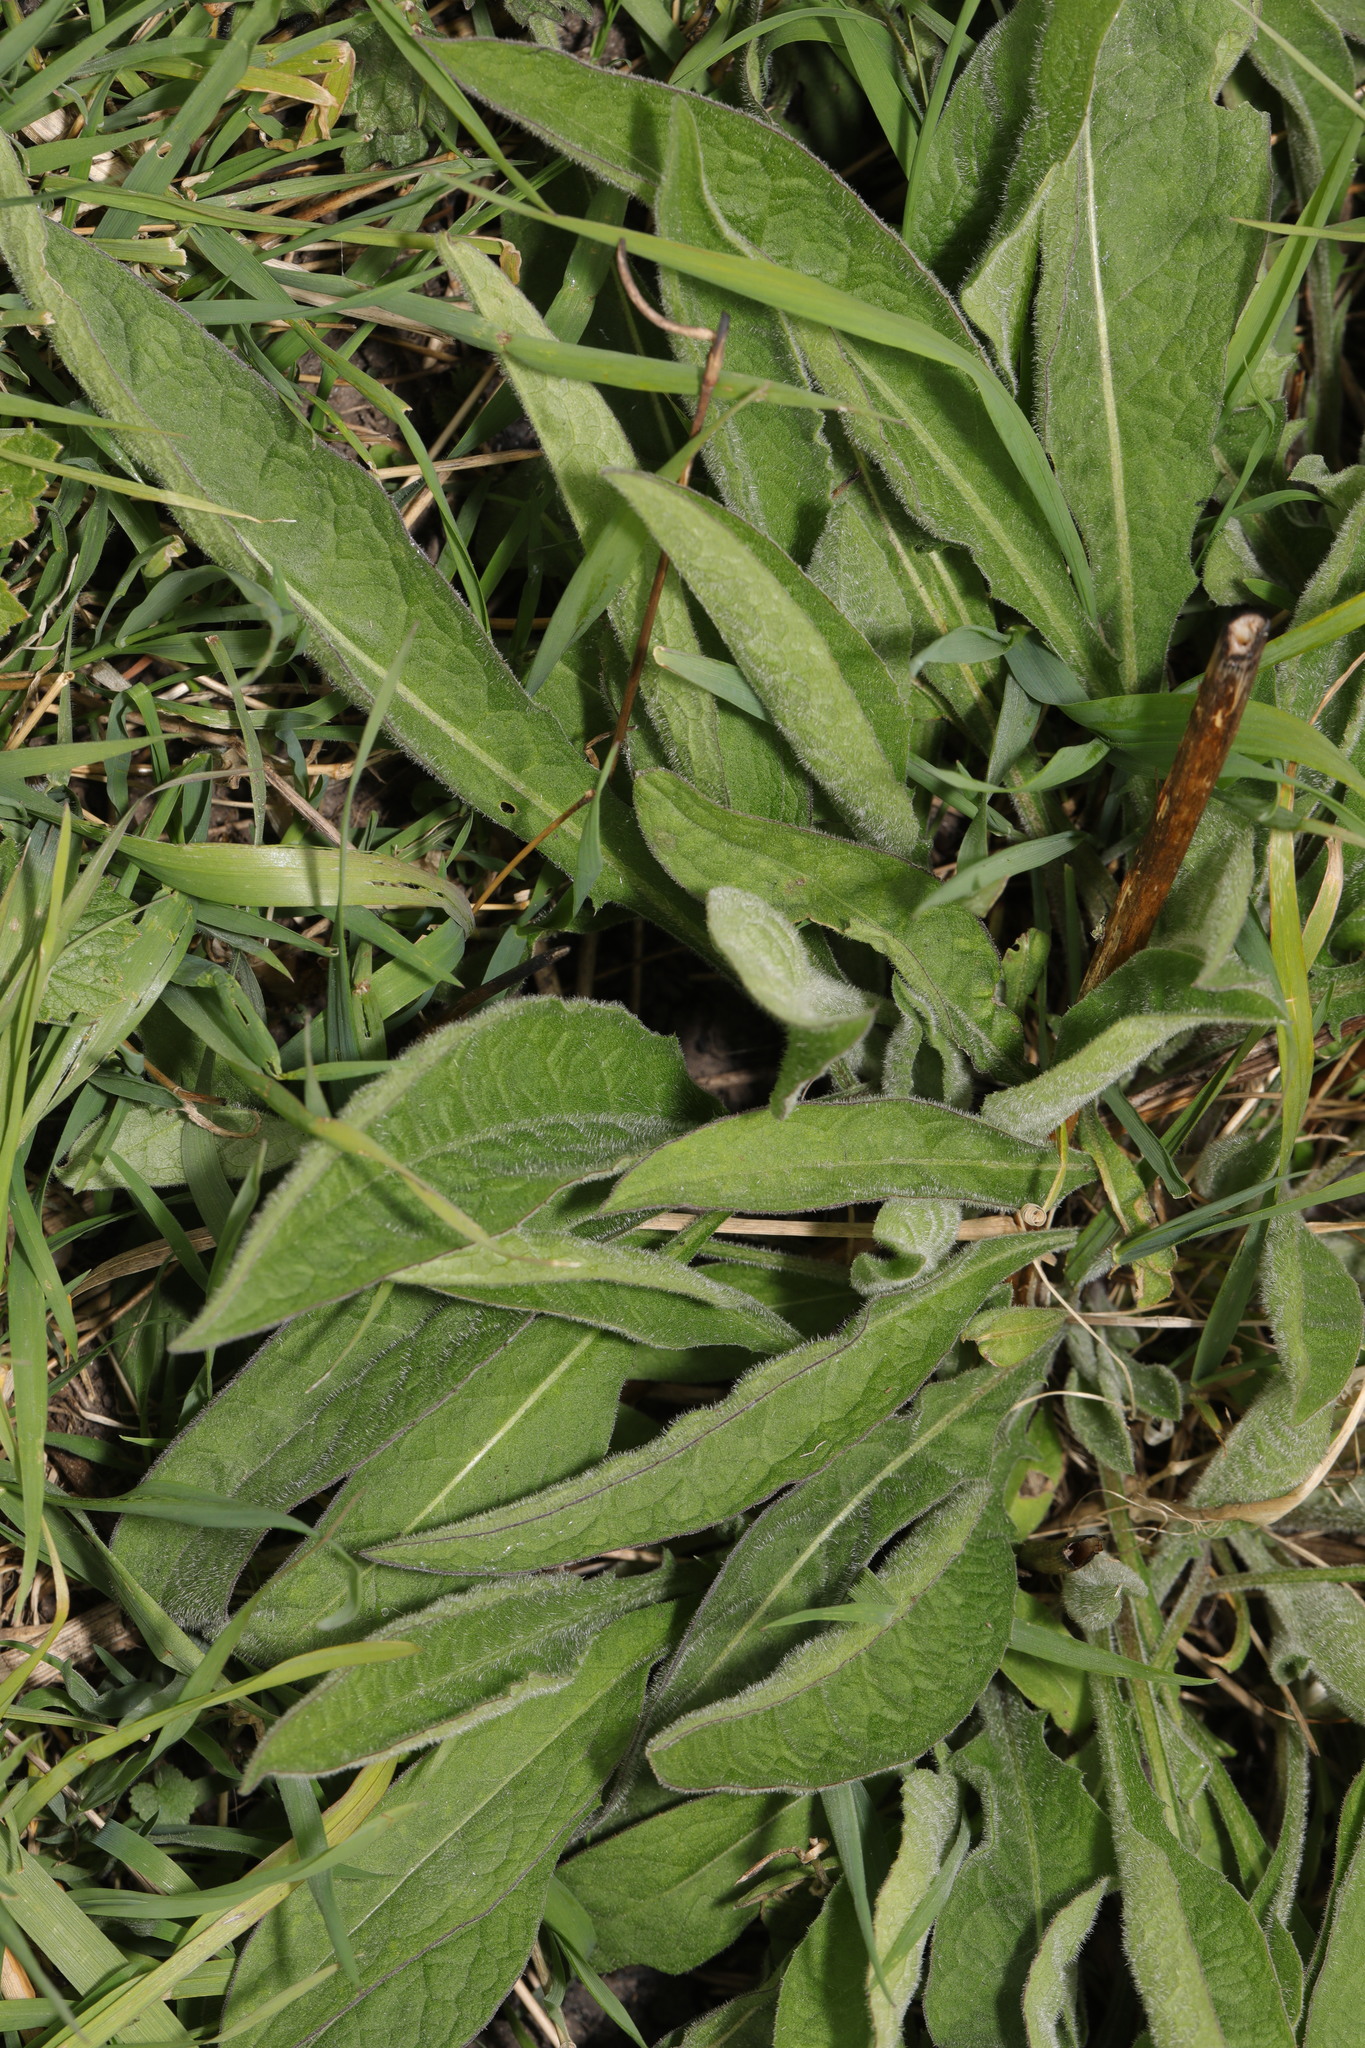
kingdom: Plantae
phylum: Tracheophyta
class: Magnoliopsida
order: Asterales
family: Asteraceae
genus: Centaurea
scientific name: Centaurea nigra
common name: Lesser knapweed
